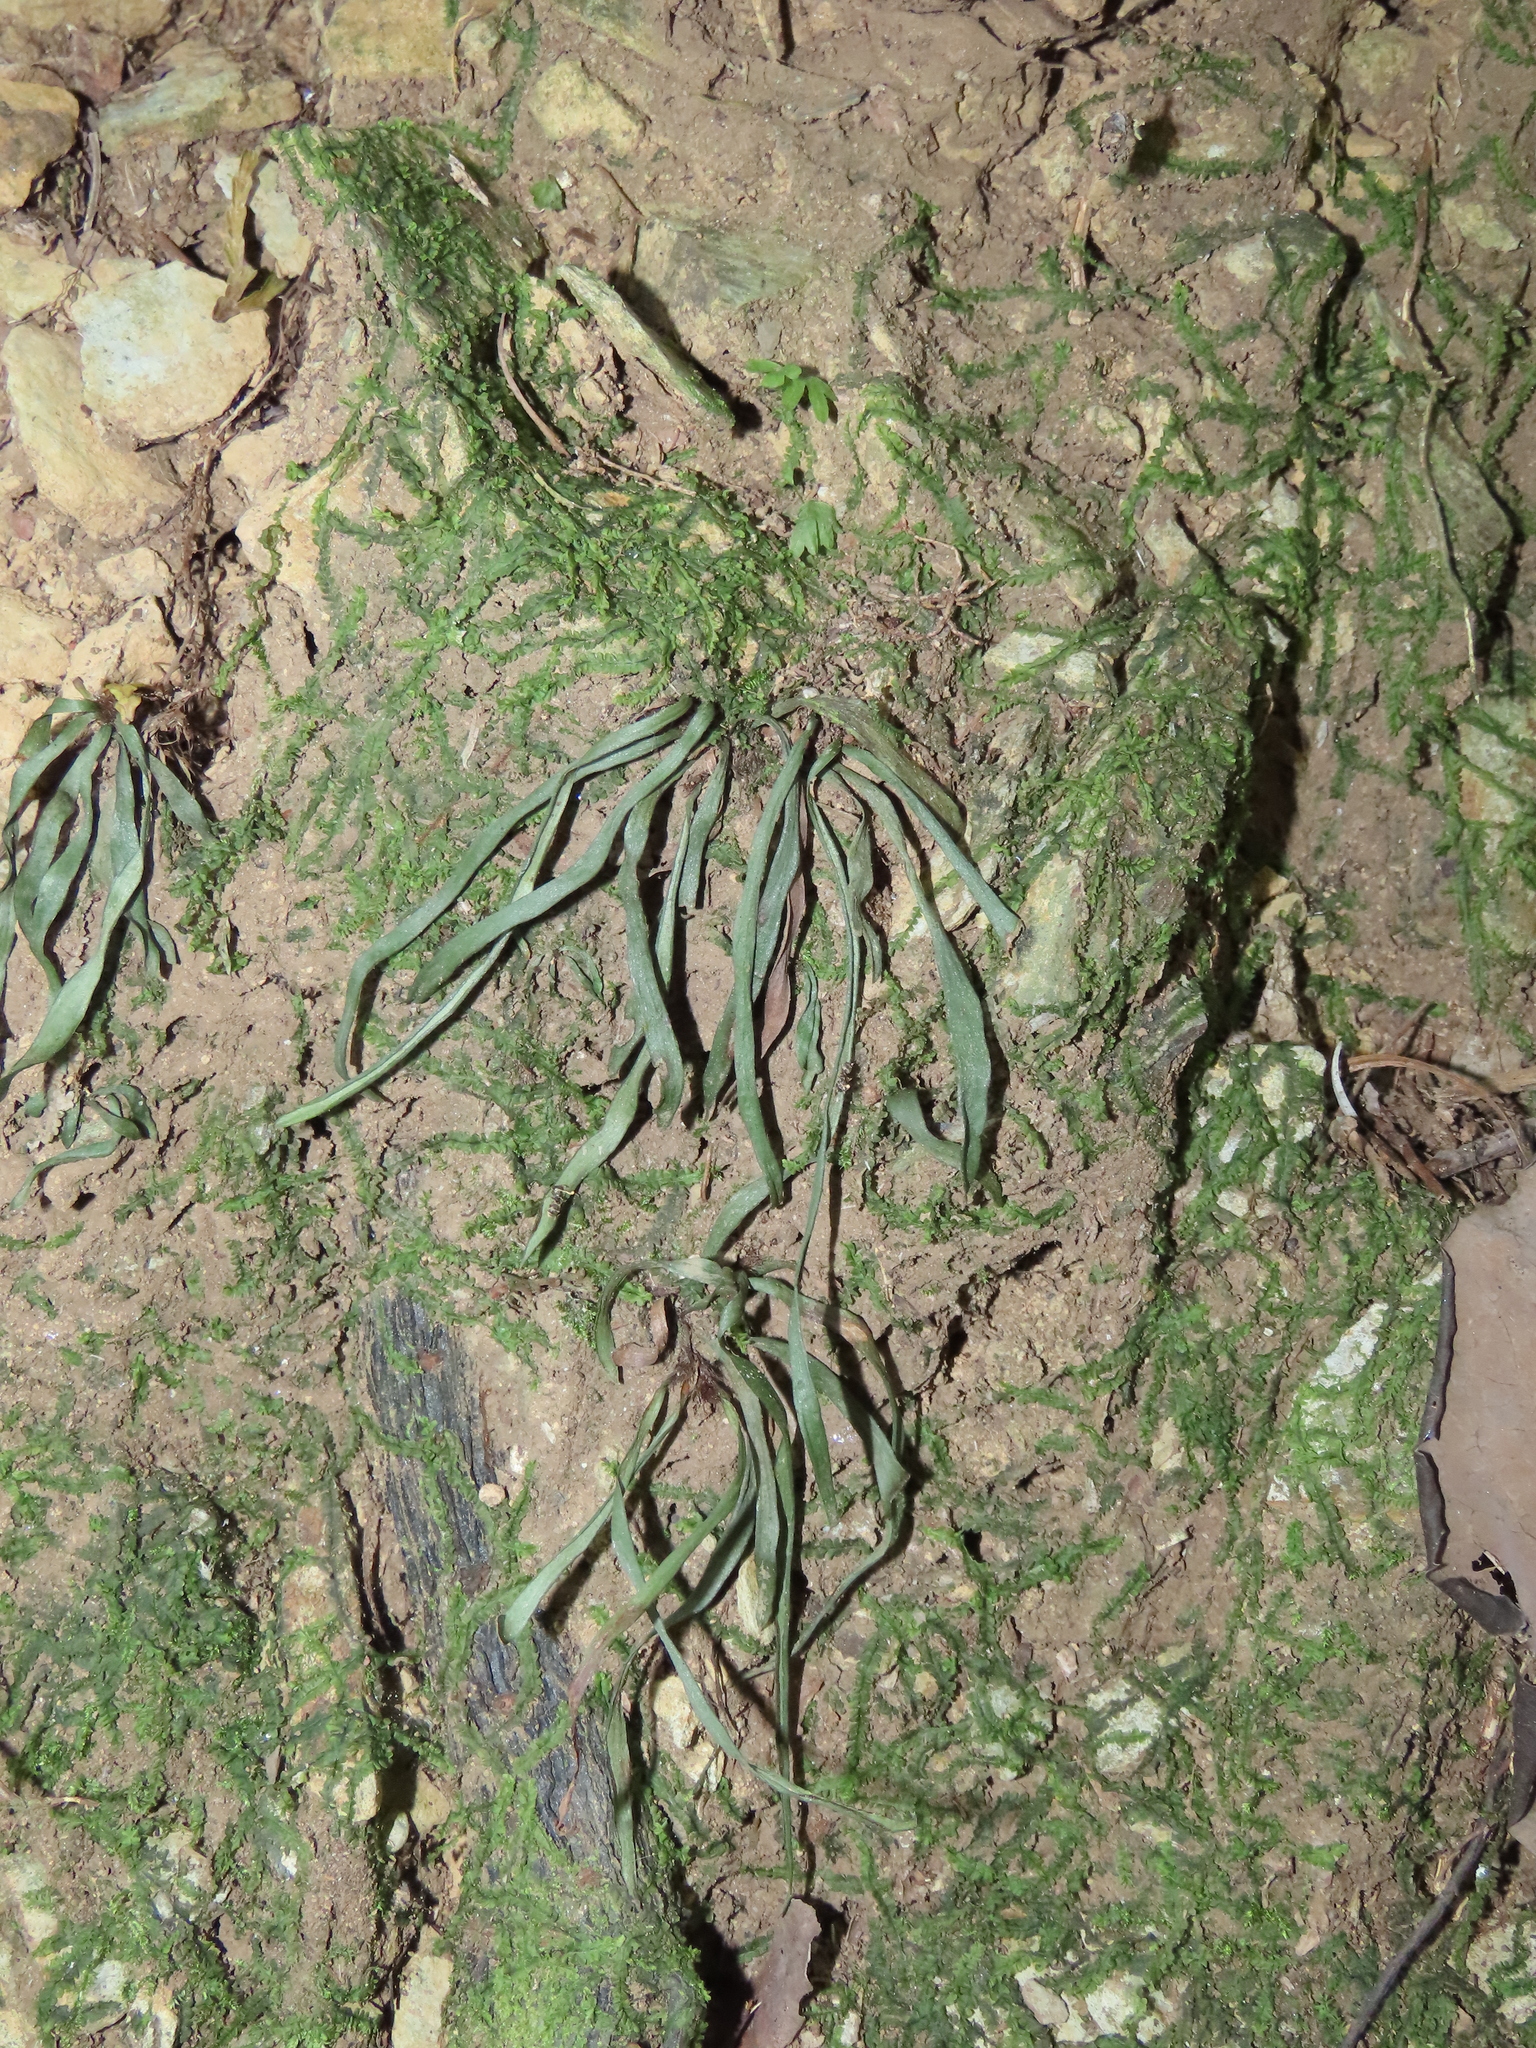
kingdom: Plantae
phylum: Tracheophyta
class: Polypodiopsida
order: Polypodiales
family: Pteridaceae
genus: Haplopteris
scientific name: Haplopteris anguste-elongata
